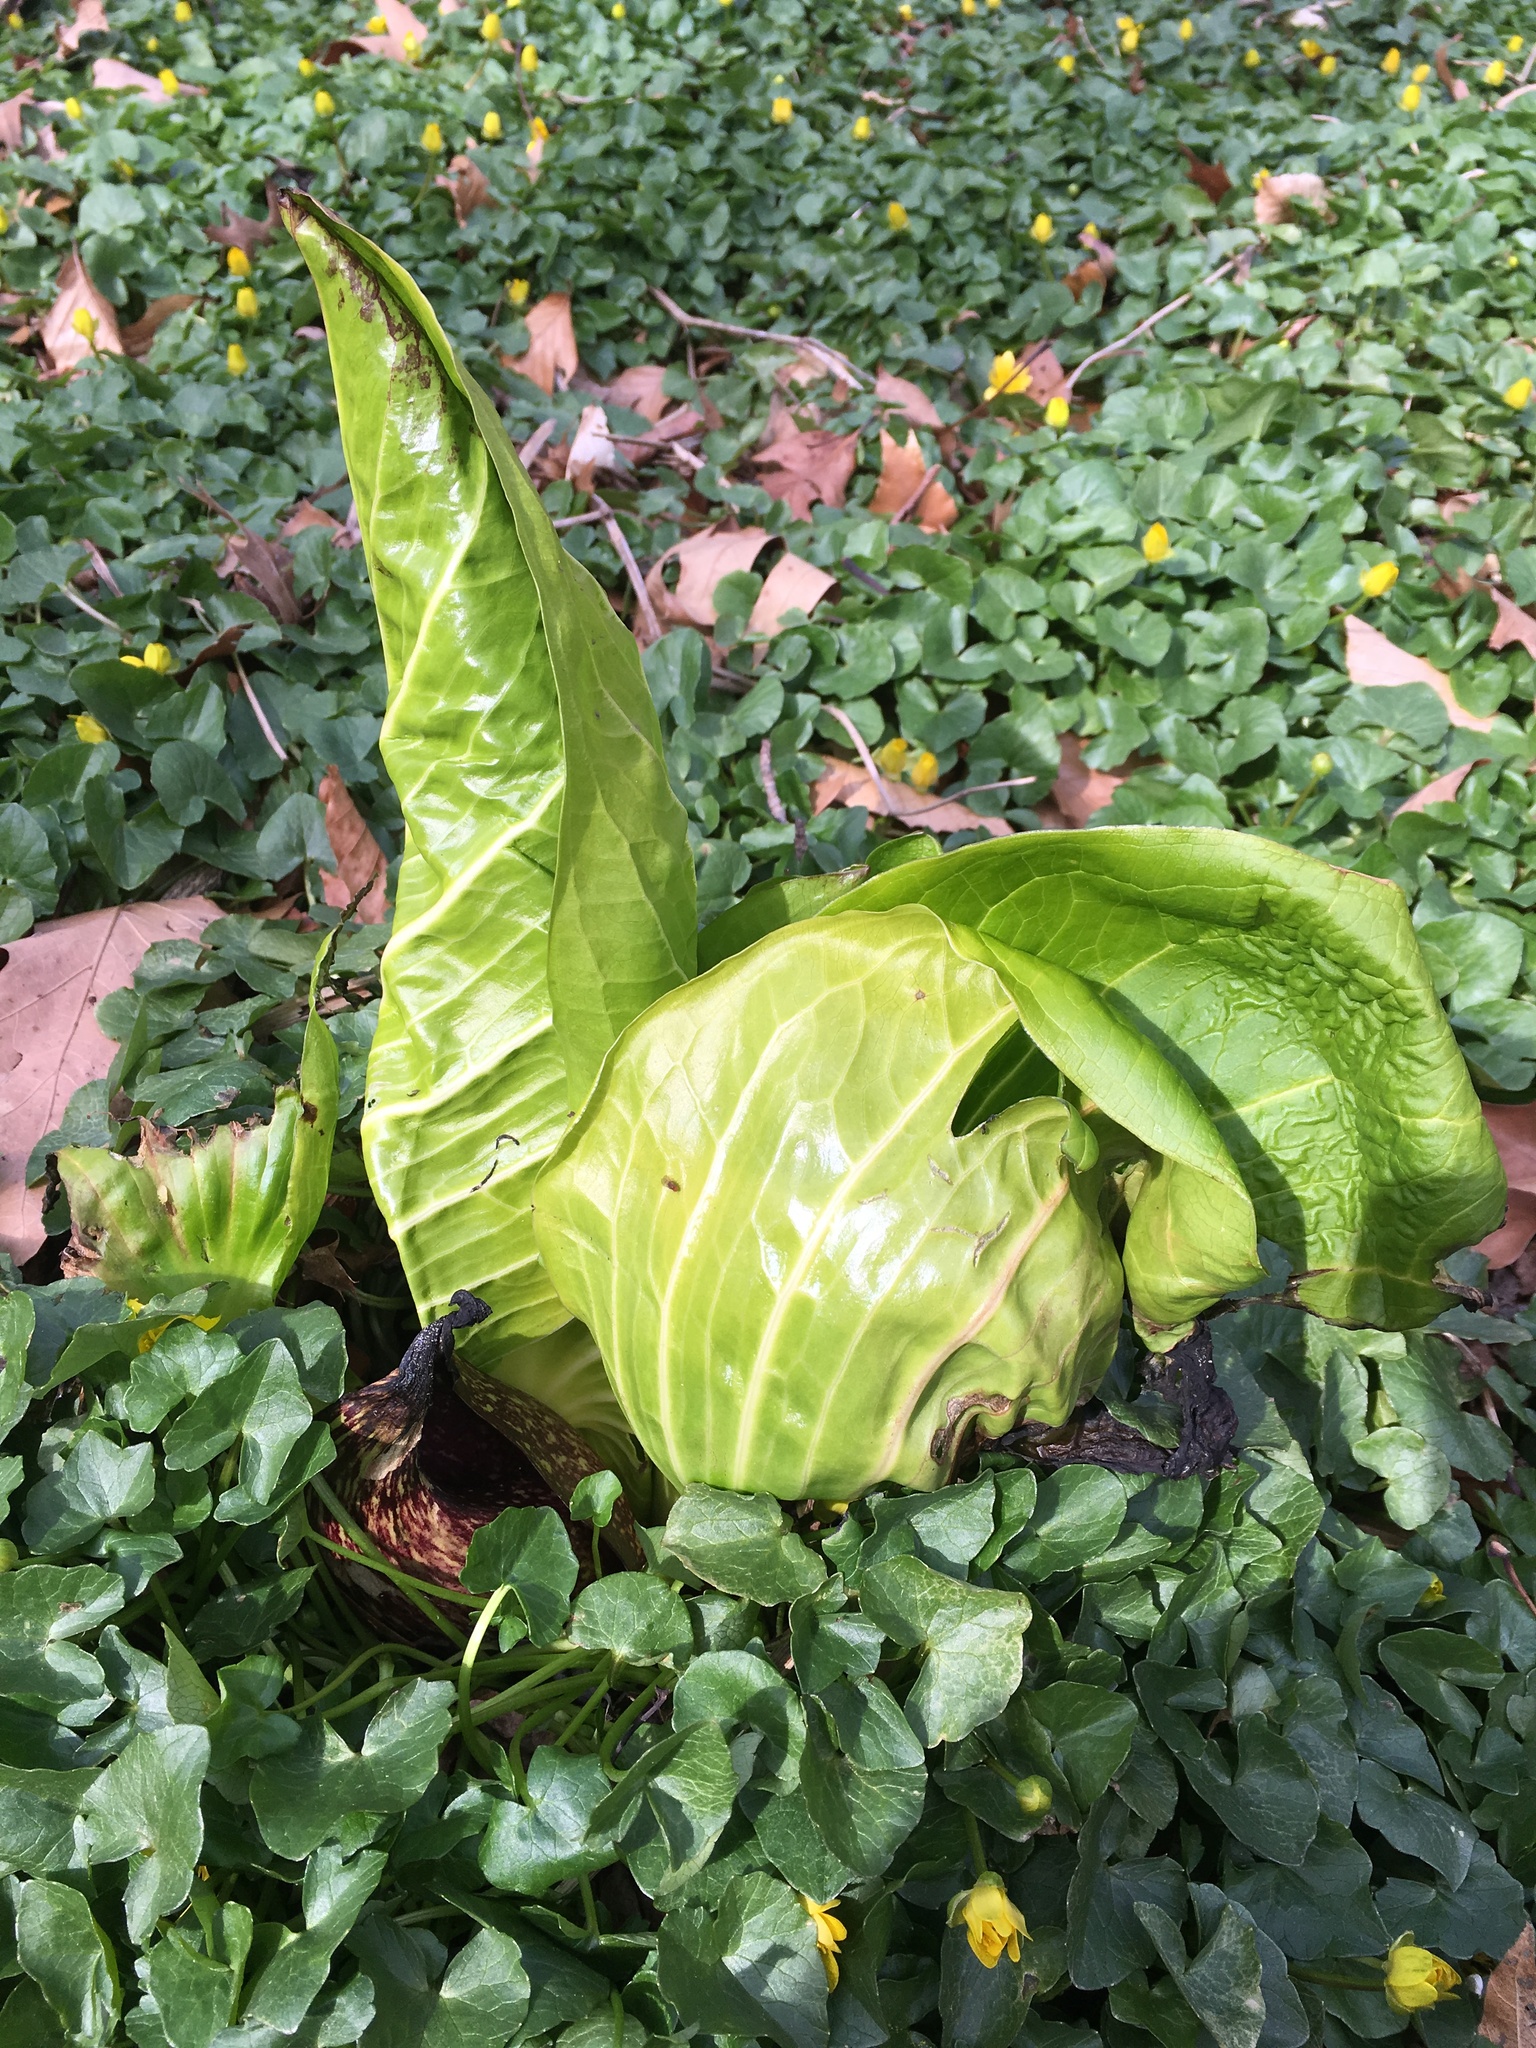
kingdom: Plantae
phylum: Tracheophyta
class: Liliopsida
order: Alismatales
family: Araceae
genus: Symplocarpus
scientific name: Symplocarpus foetidus
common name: Eastern skunk cabbage
